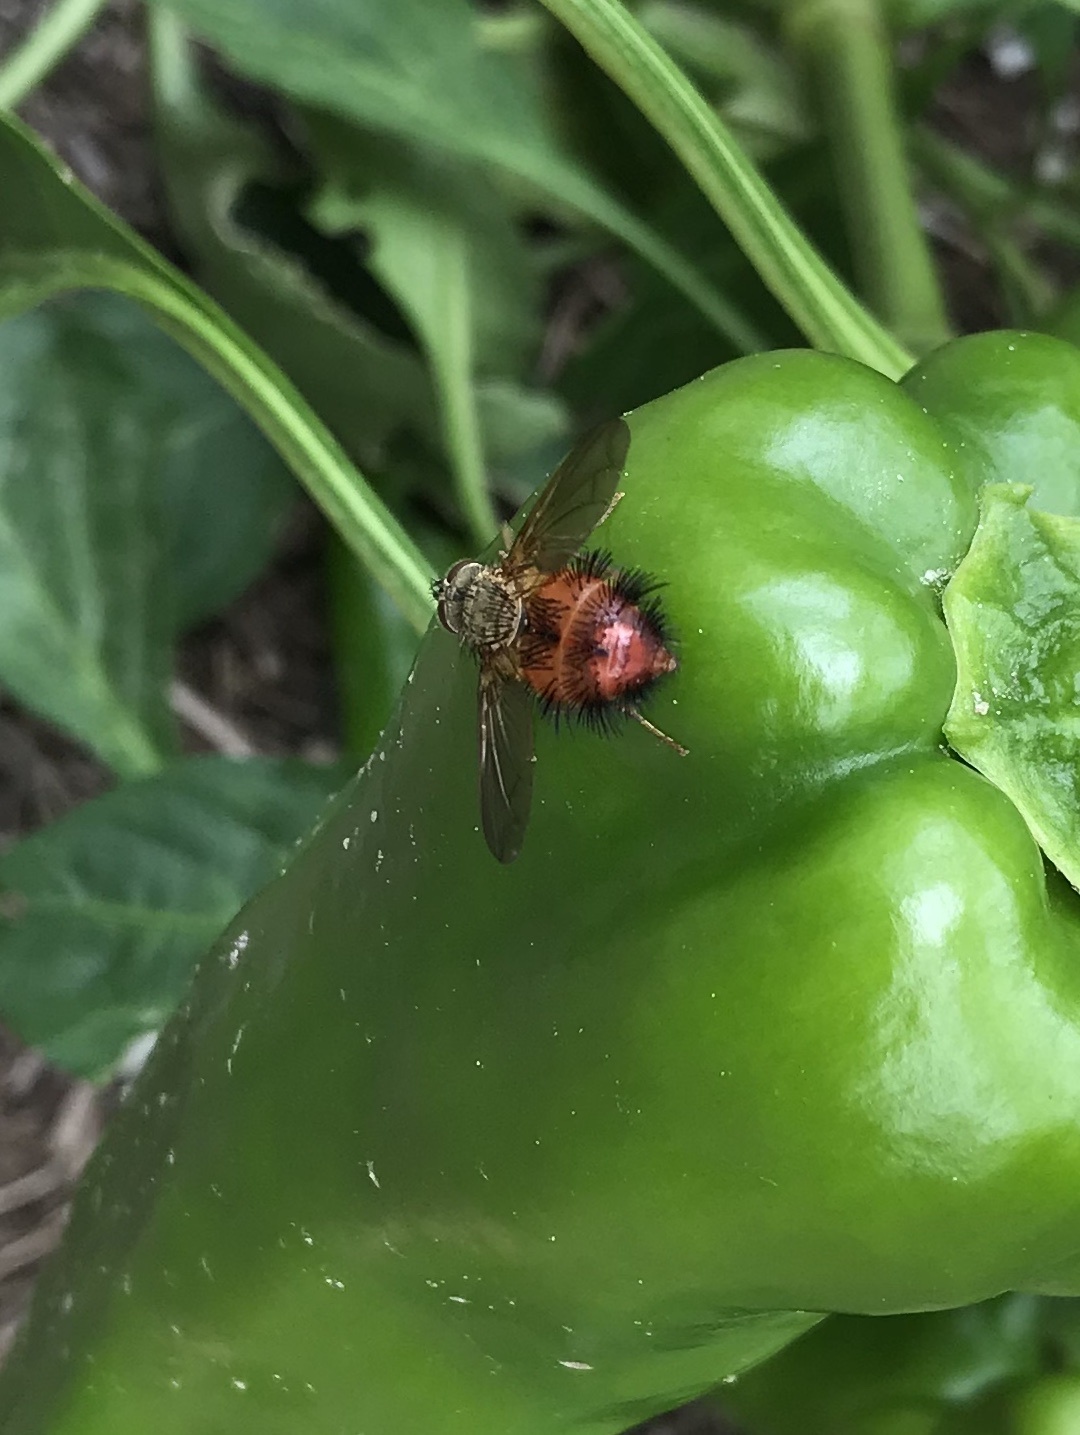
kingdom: Animalia
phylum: Arthropoda
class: Insecta
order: Diptera
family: Tachinidae
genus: Hystricia
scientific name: Hystricia abrupta
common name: Tomato bristle fly
